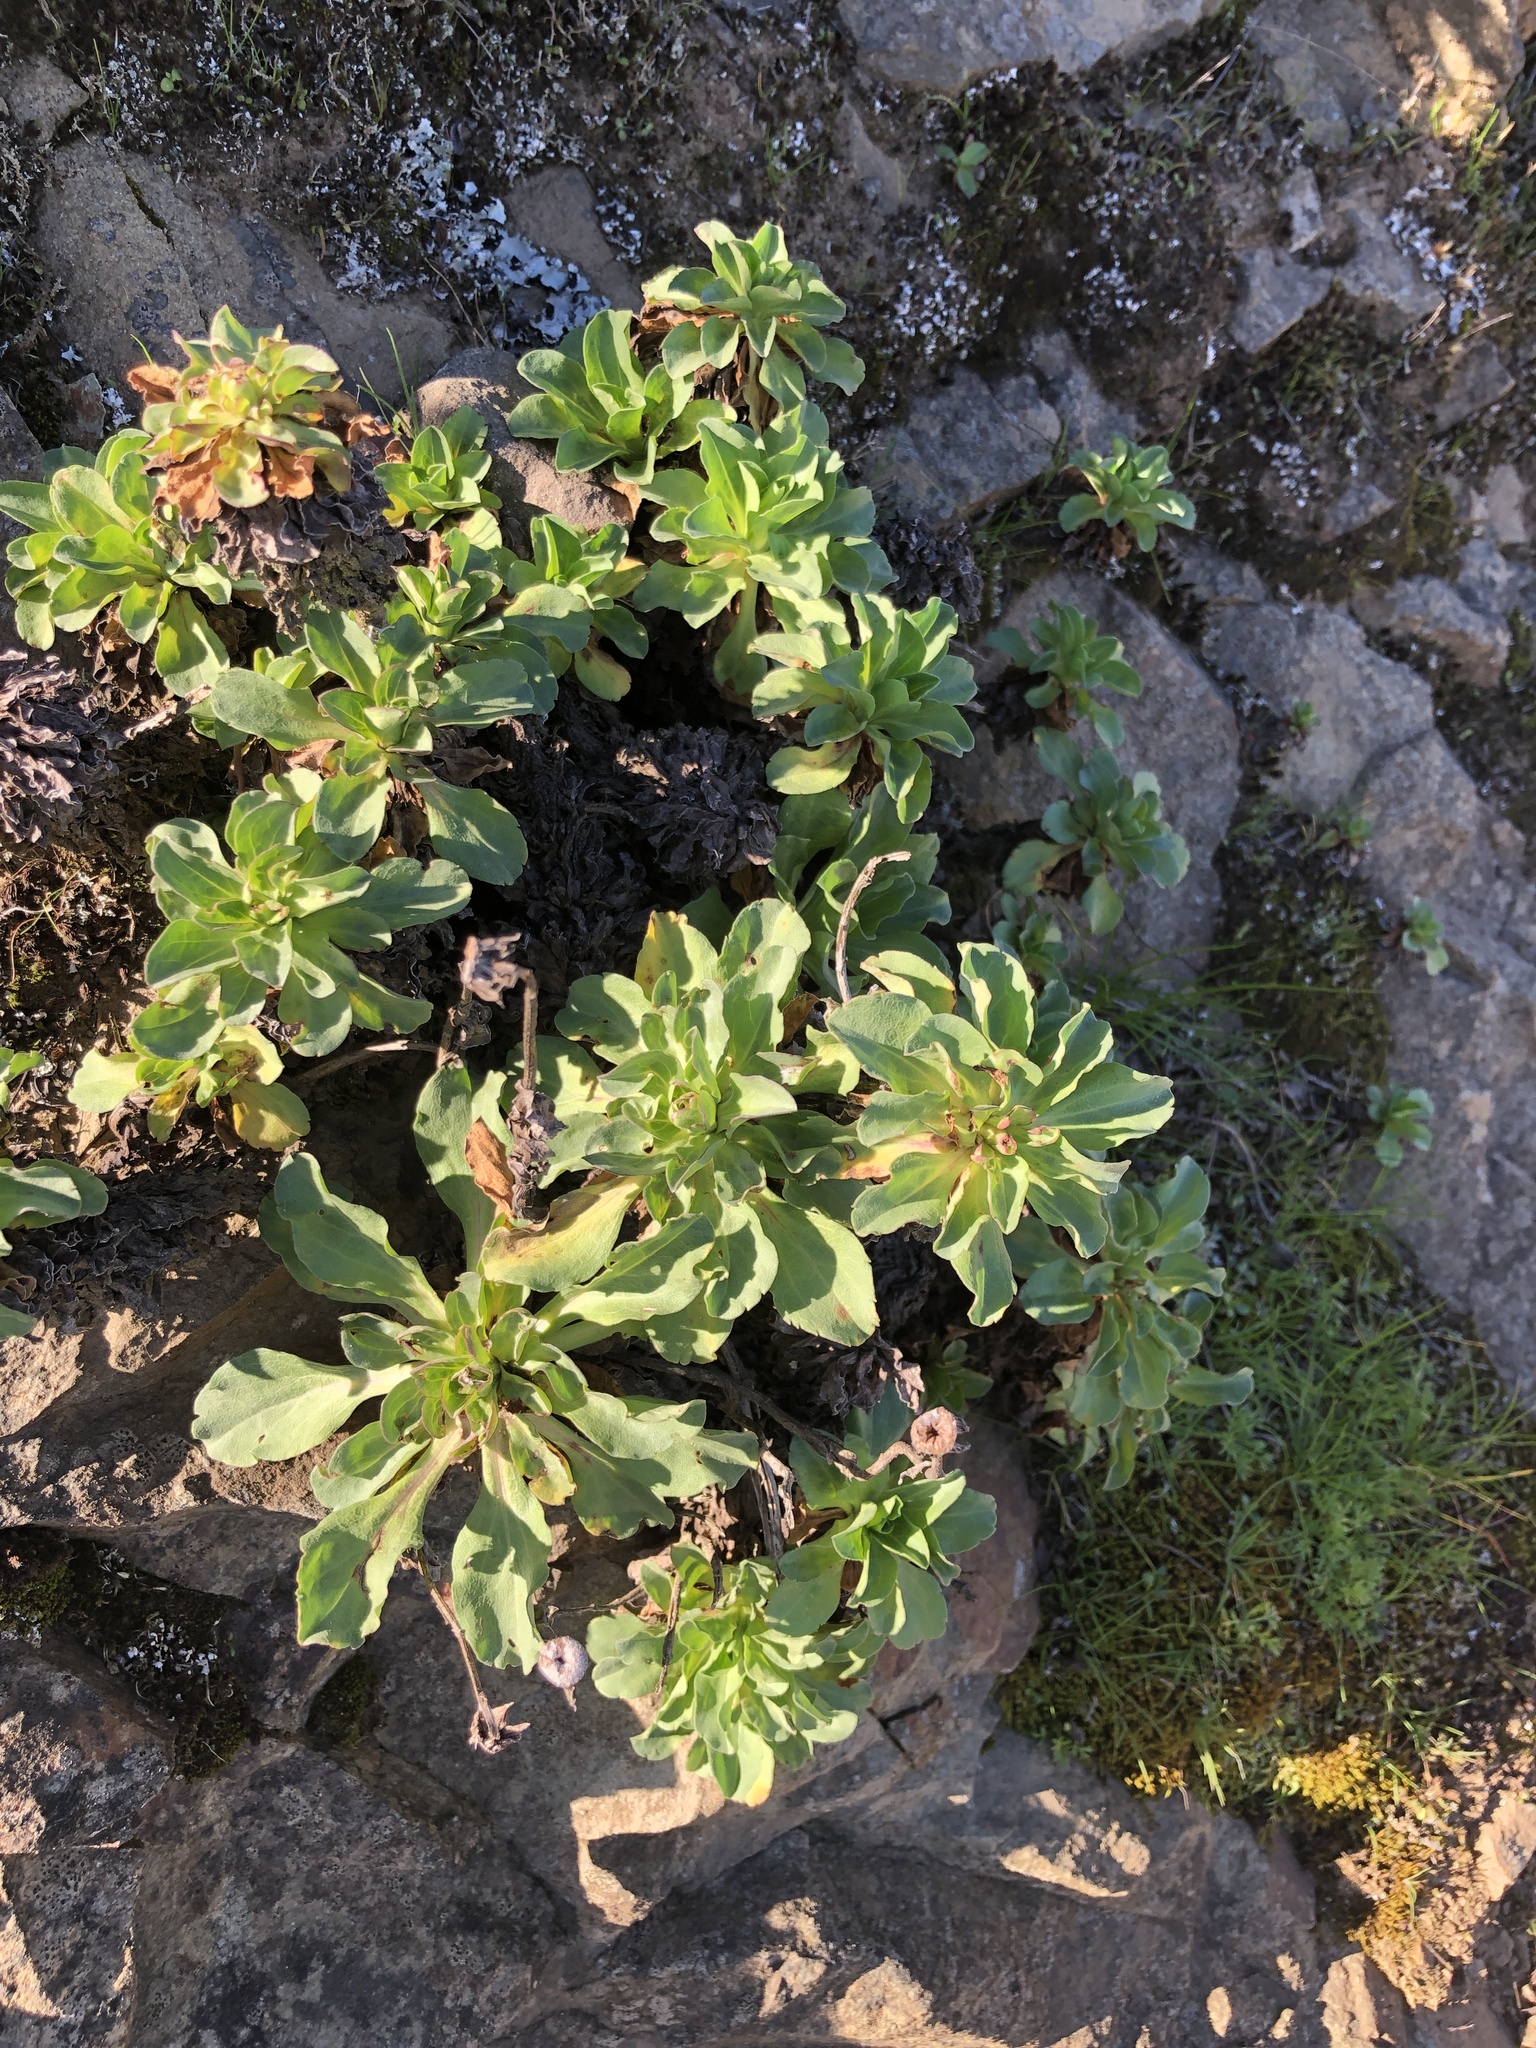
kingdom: Plantae
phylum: Tracheophyta
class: Magnoliopsida
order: Asterales
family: Asteraceae
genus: Erigeron
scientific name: Erigeron glaucus
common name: Seaside daisy
